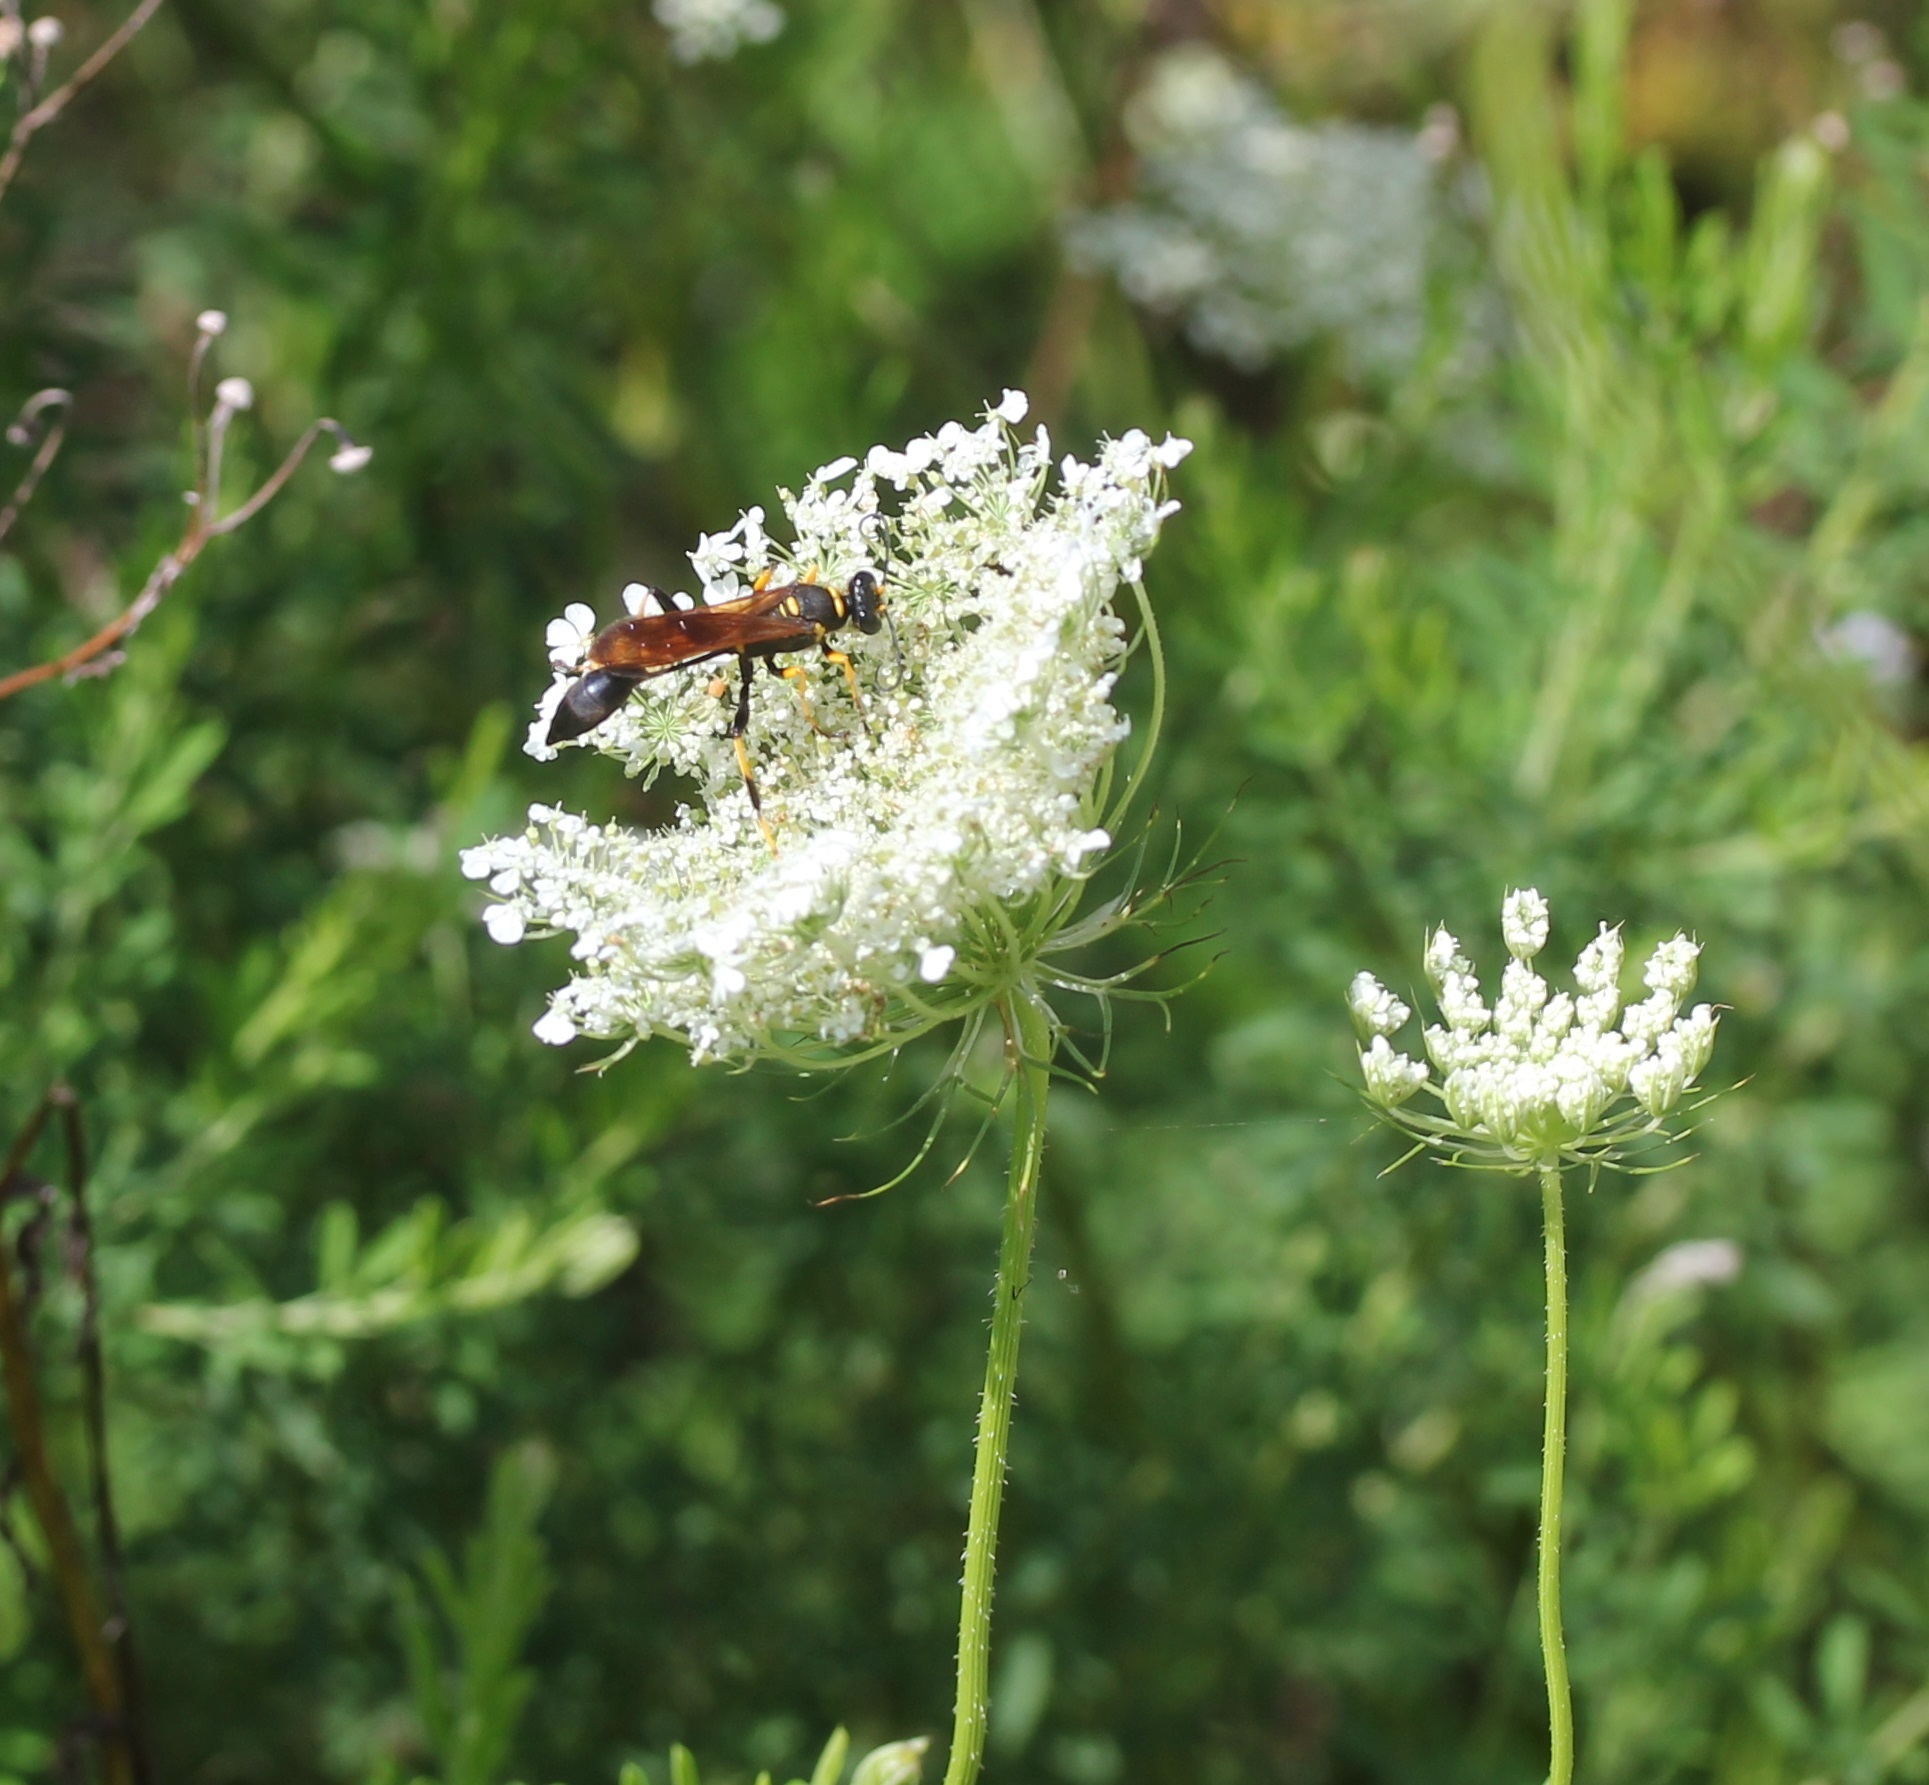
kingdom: Animalia
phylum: Arthropoda
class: Insecta
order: Hymenoptera
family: Sphecidae
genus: Sceliphron
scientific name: Sceliphron caementarium
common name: Mud dauber
